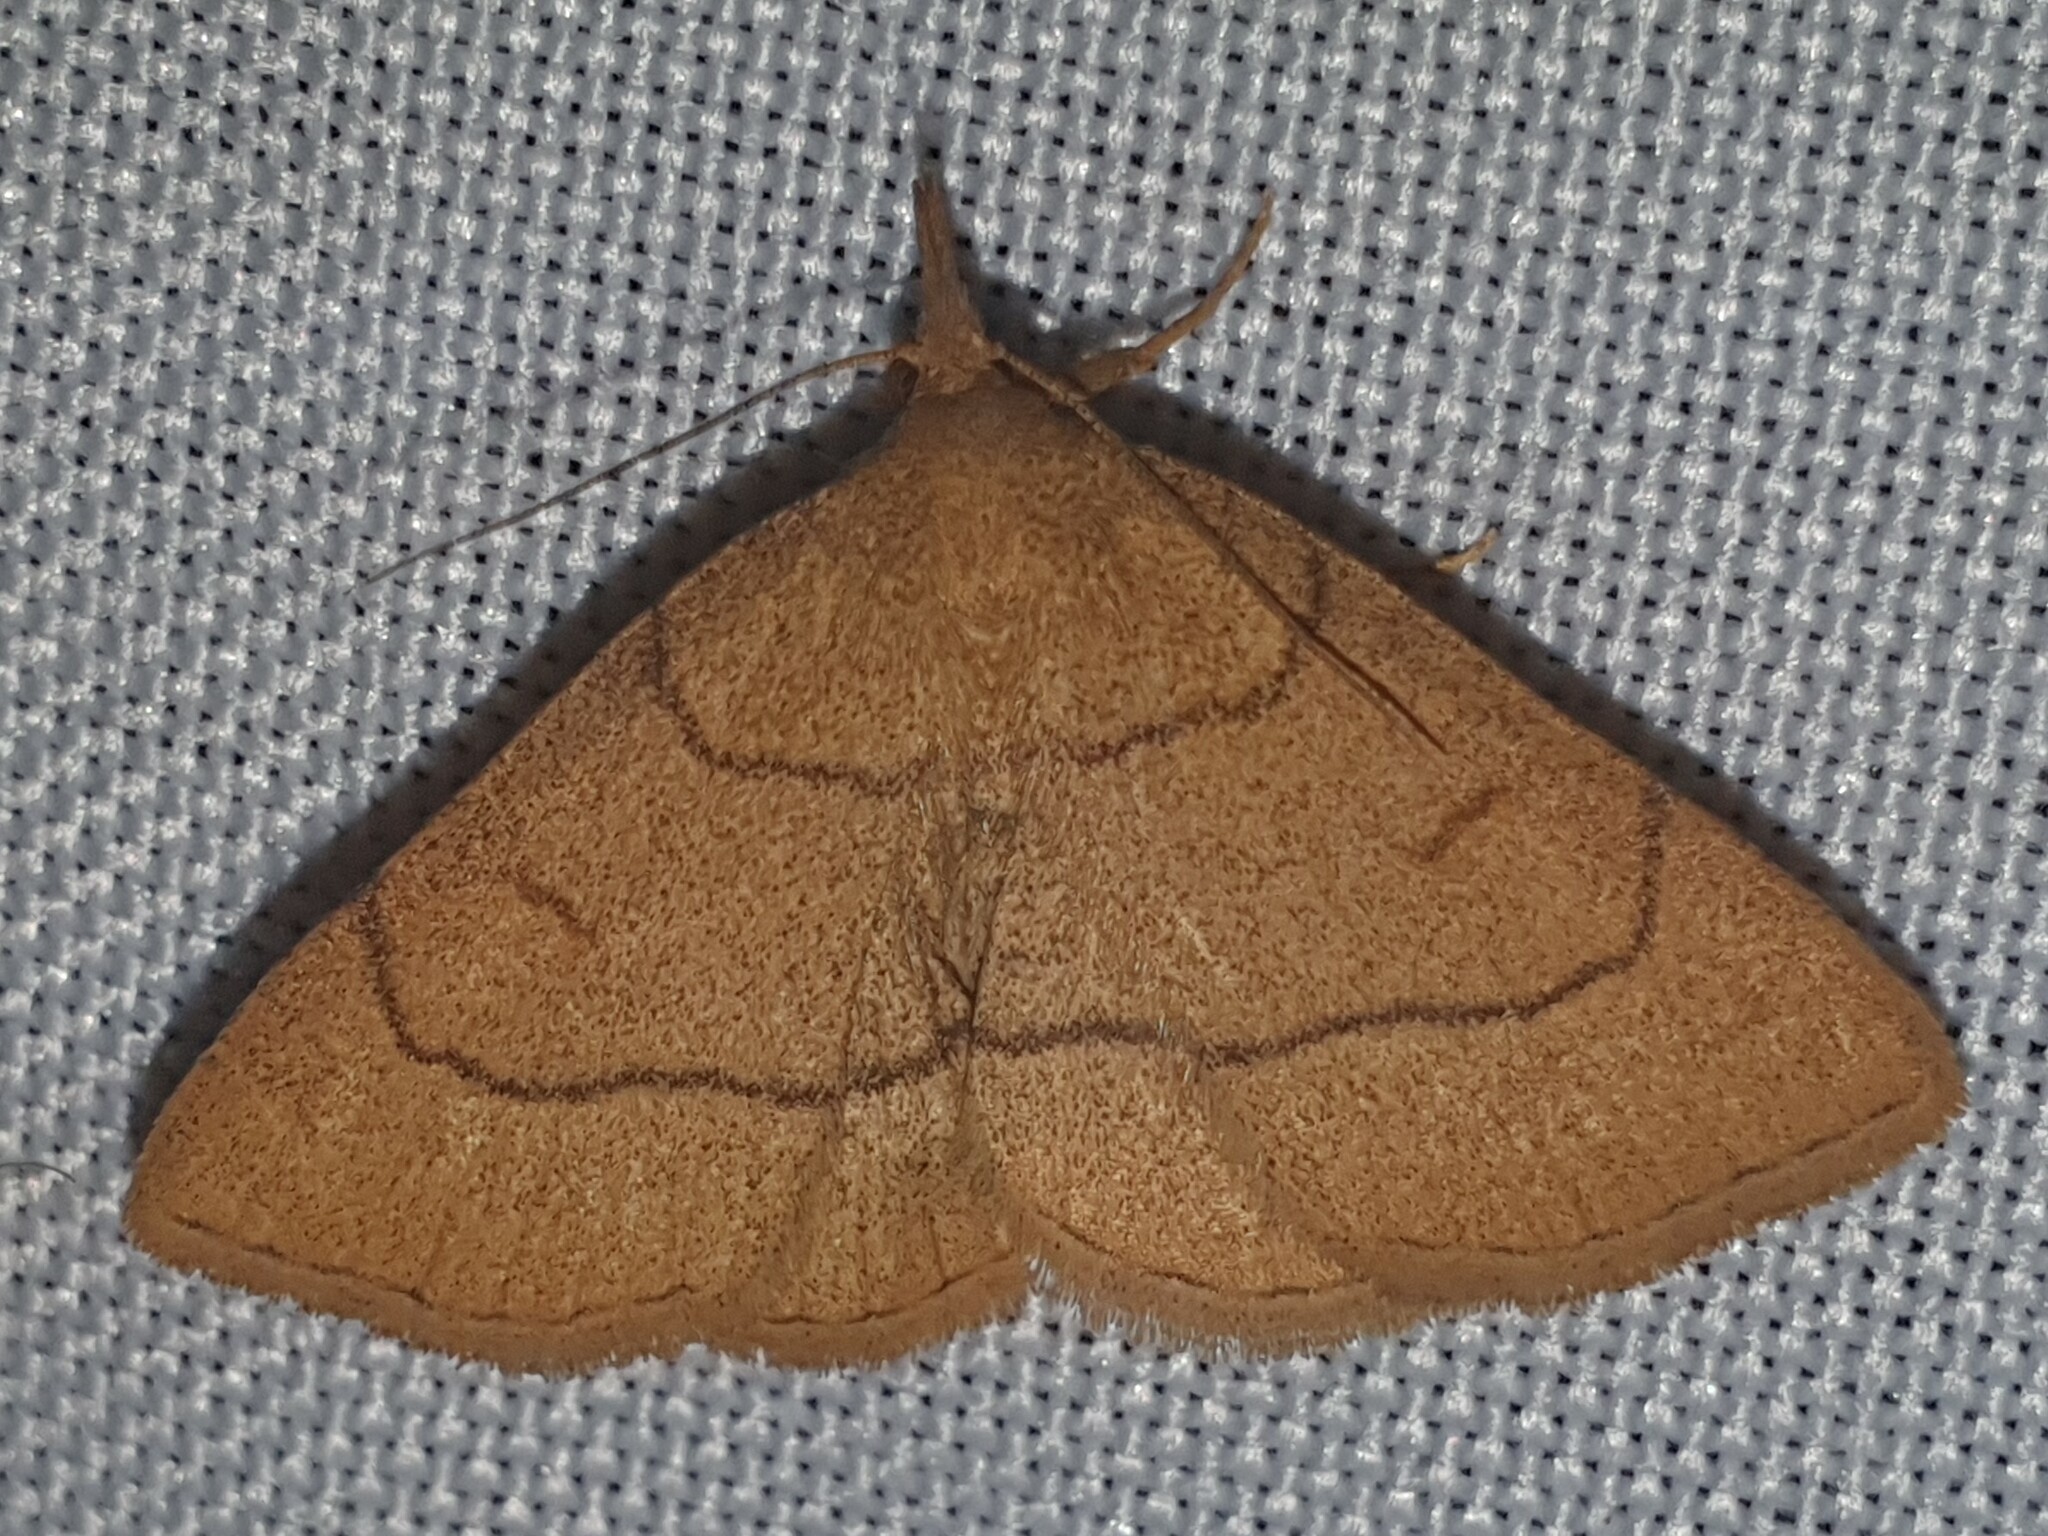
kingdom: Animalia
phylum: Arthropoda
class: Insecta
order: Lepidoptera
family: Erebidae
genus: Paracolax
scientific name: Paracolax tristalis
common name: Clay fan-foot
